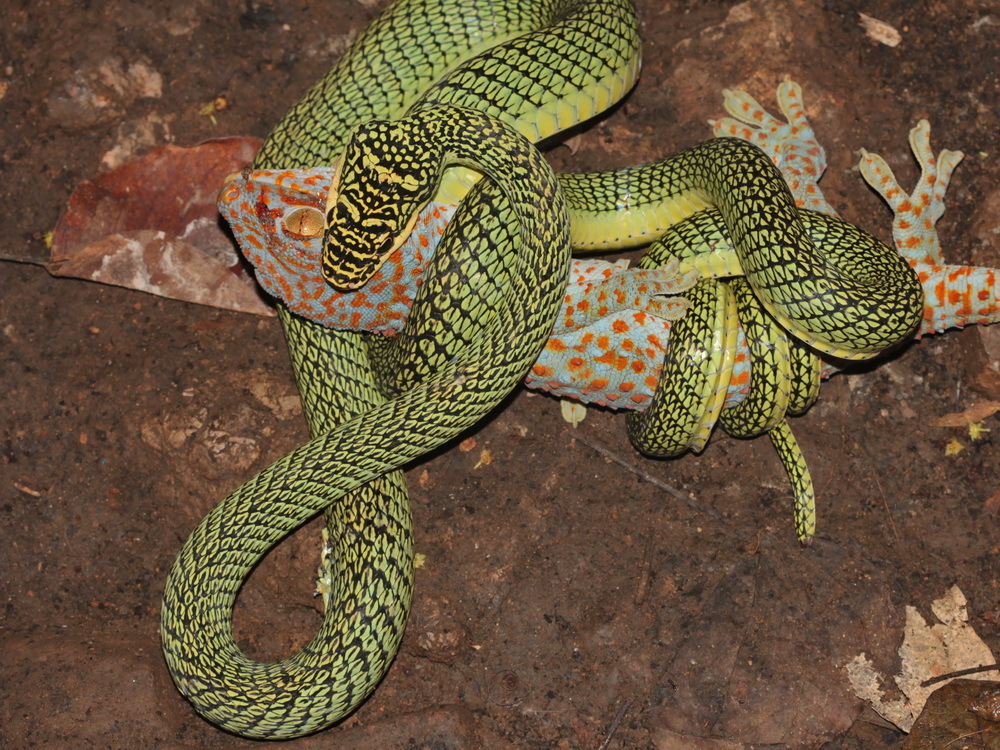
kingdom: Animalia
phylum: Chordata
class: Squamata
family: Colubridae
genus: Chrysopelea
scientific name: Chrysopelea ornata
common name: Golden flying snake
